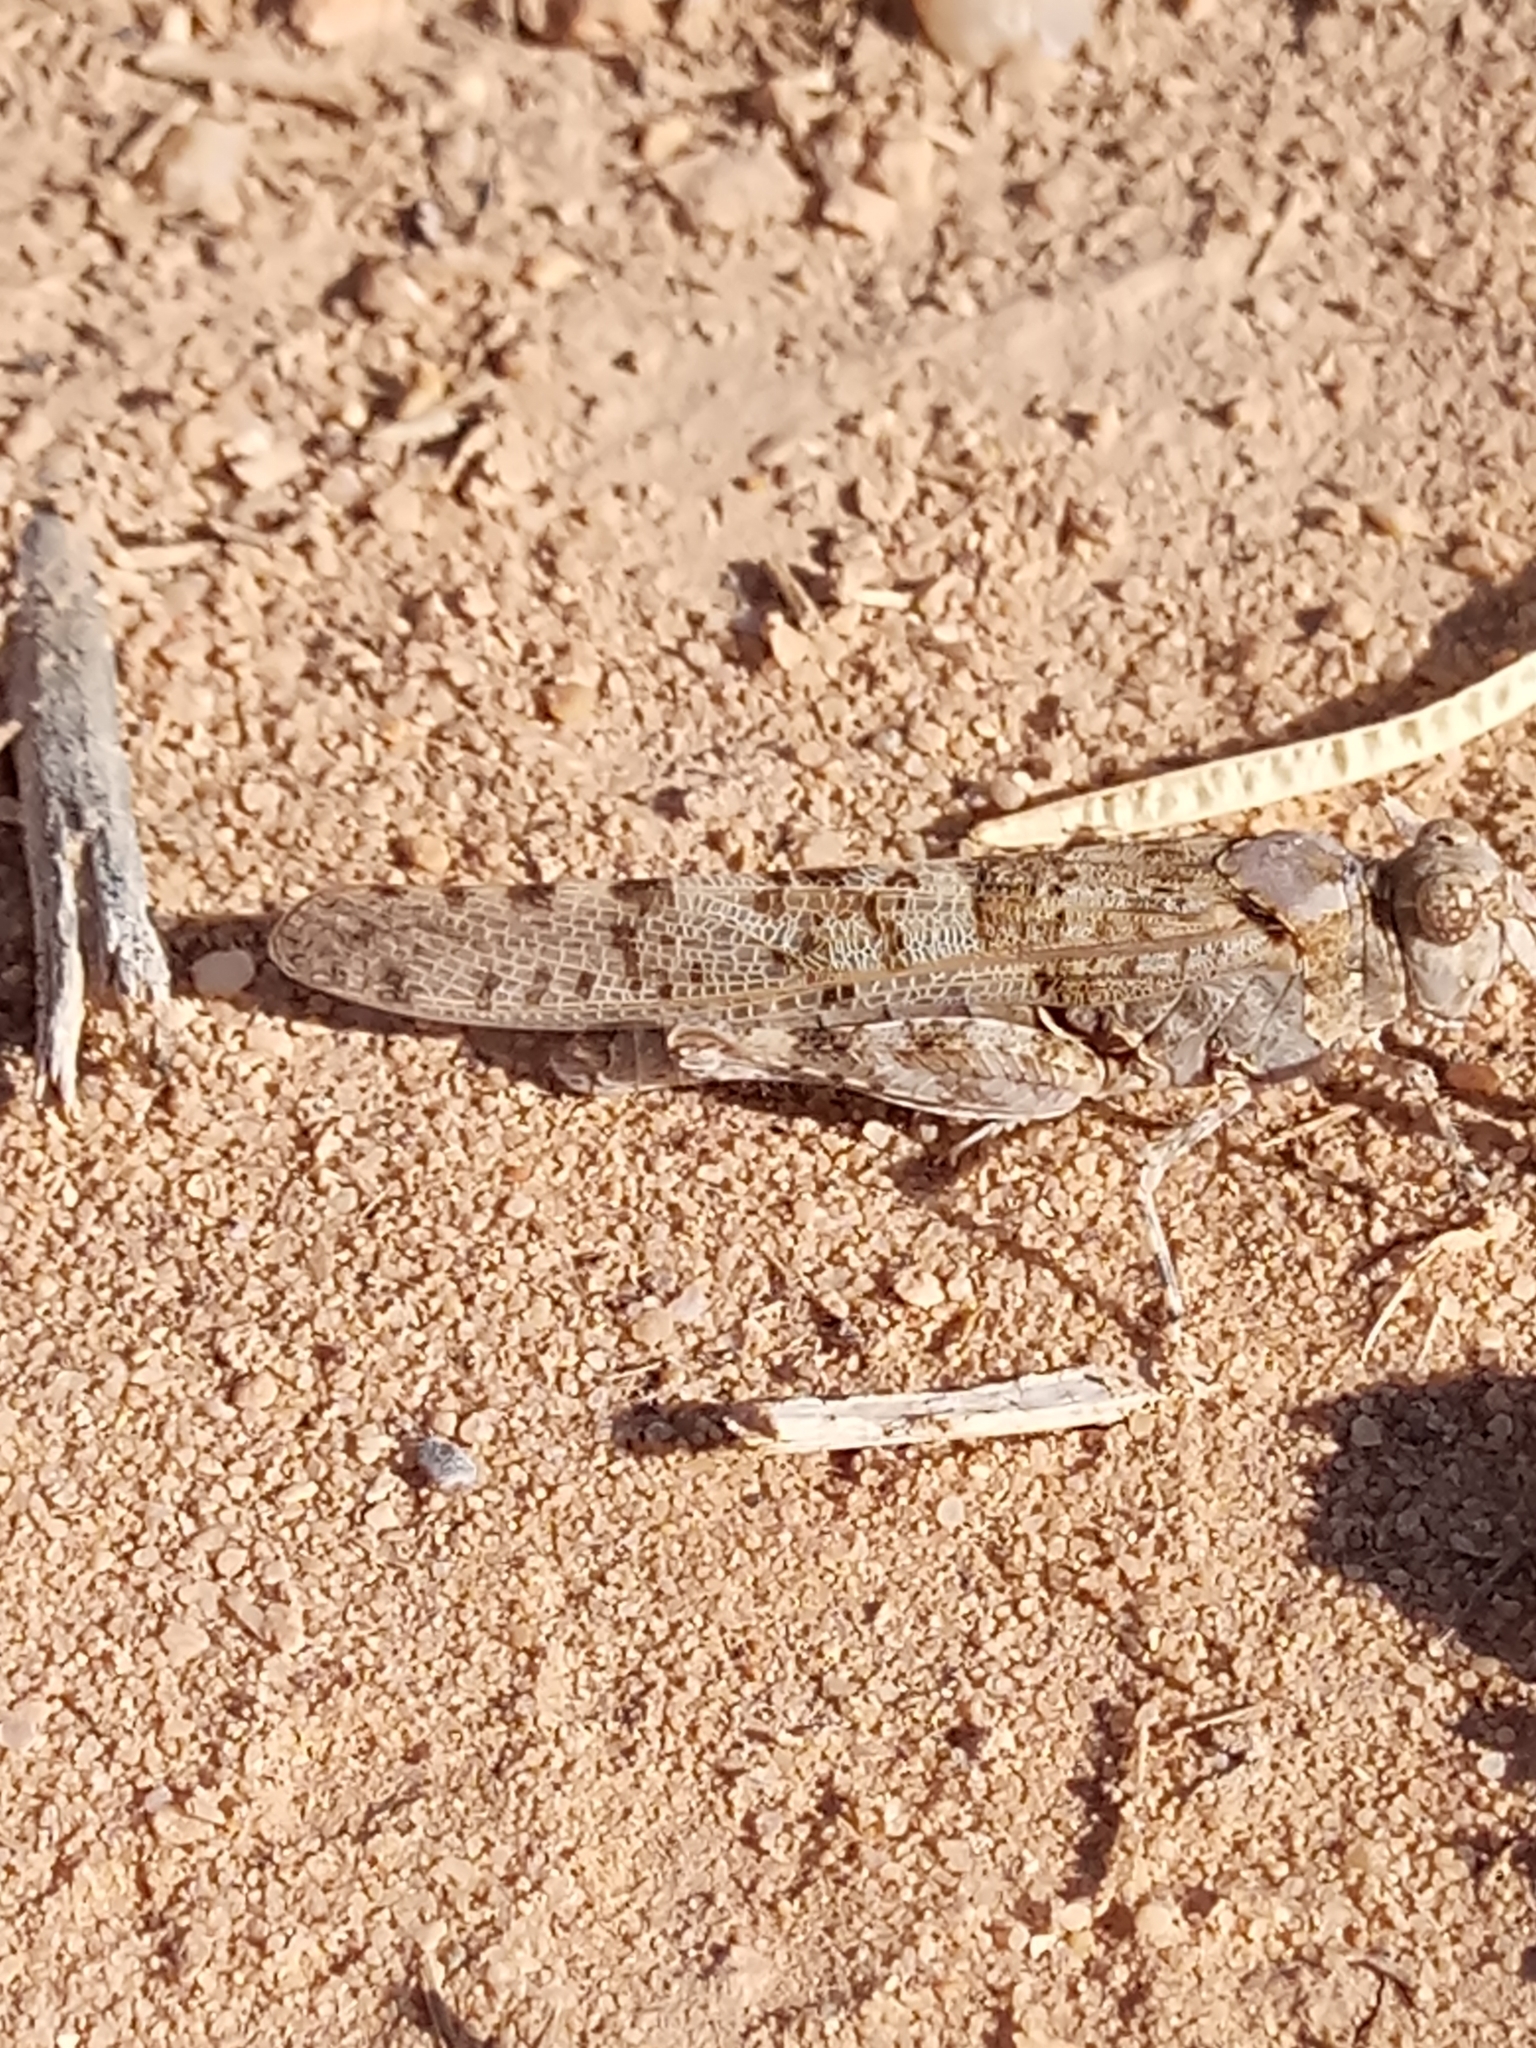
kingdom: Animalia
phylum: Arthropoda
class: Insecta
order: Orthoptera
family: Acrididae
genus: Sphingonotus
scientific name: Sphingonotus rubescens
